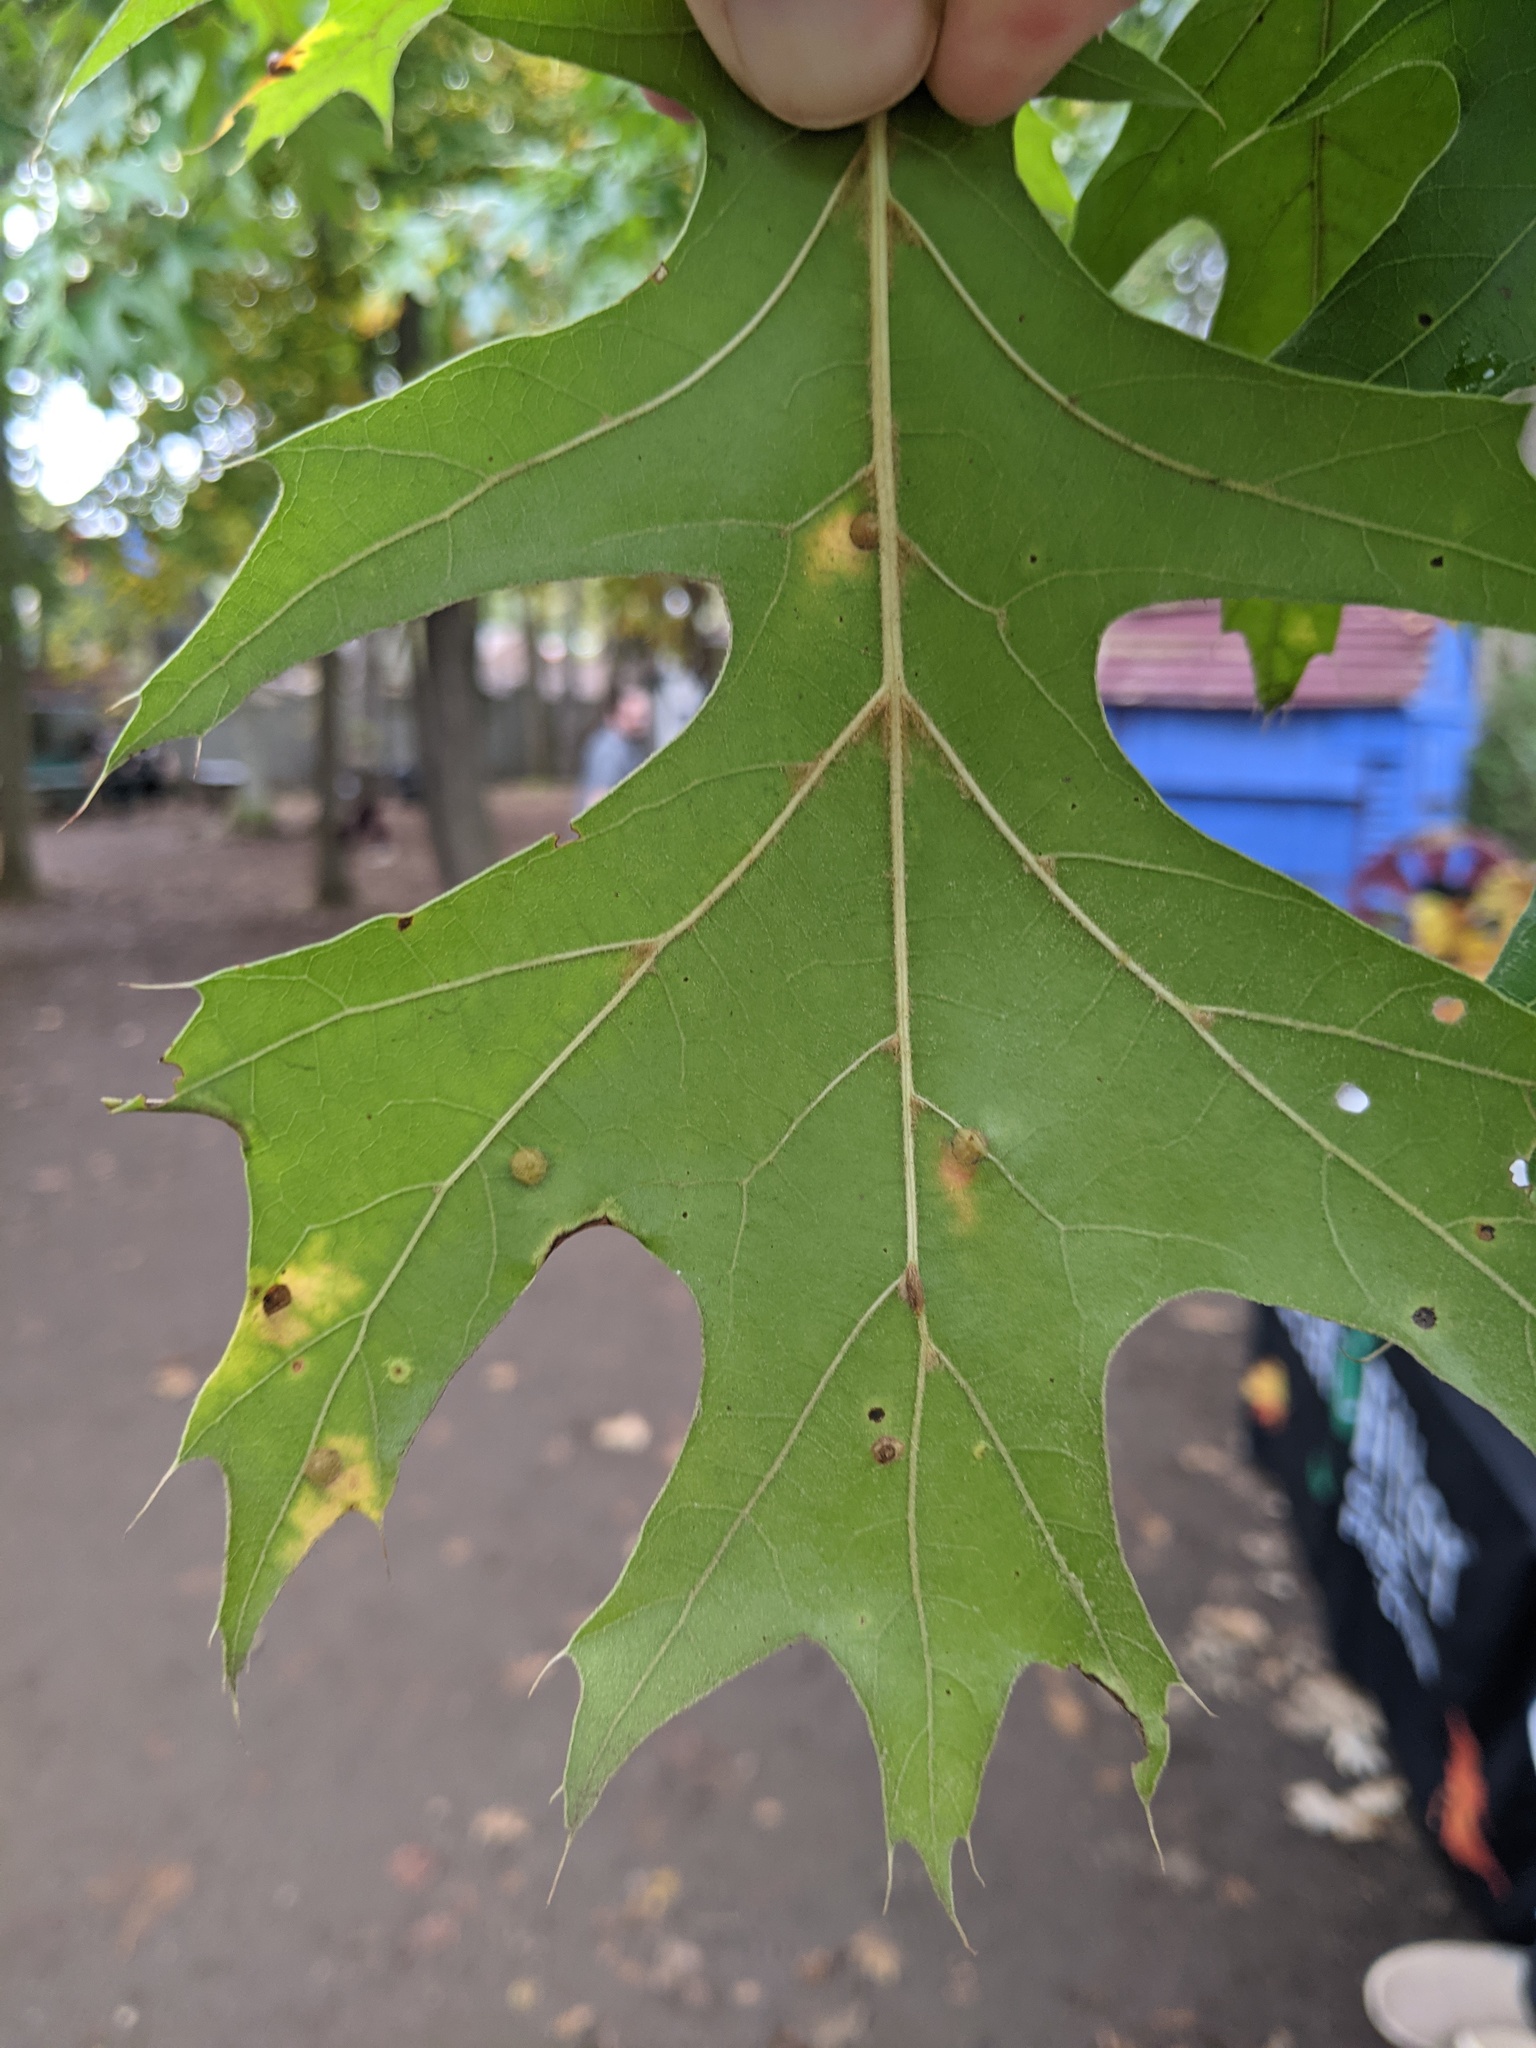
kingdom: Animalia
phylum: Arthropoda
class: Insecta
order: Diptera
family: Cecidomyiidae
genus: Polystepha
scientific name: Polystepha pilulae
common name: Oak leaf gall midge
